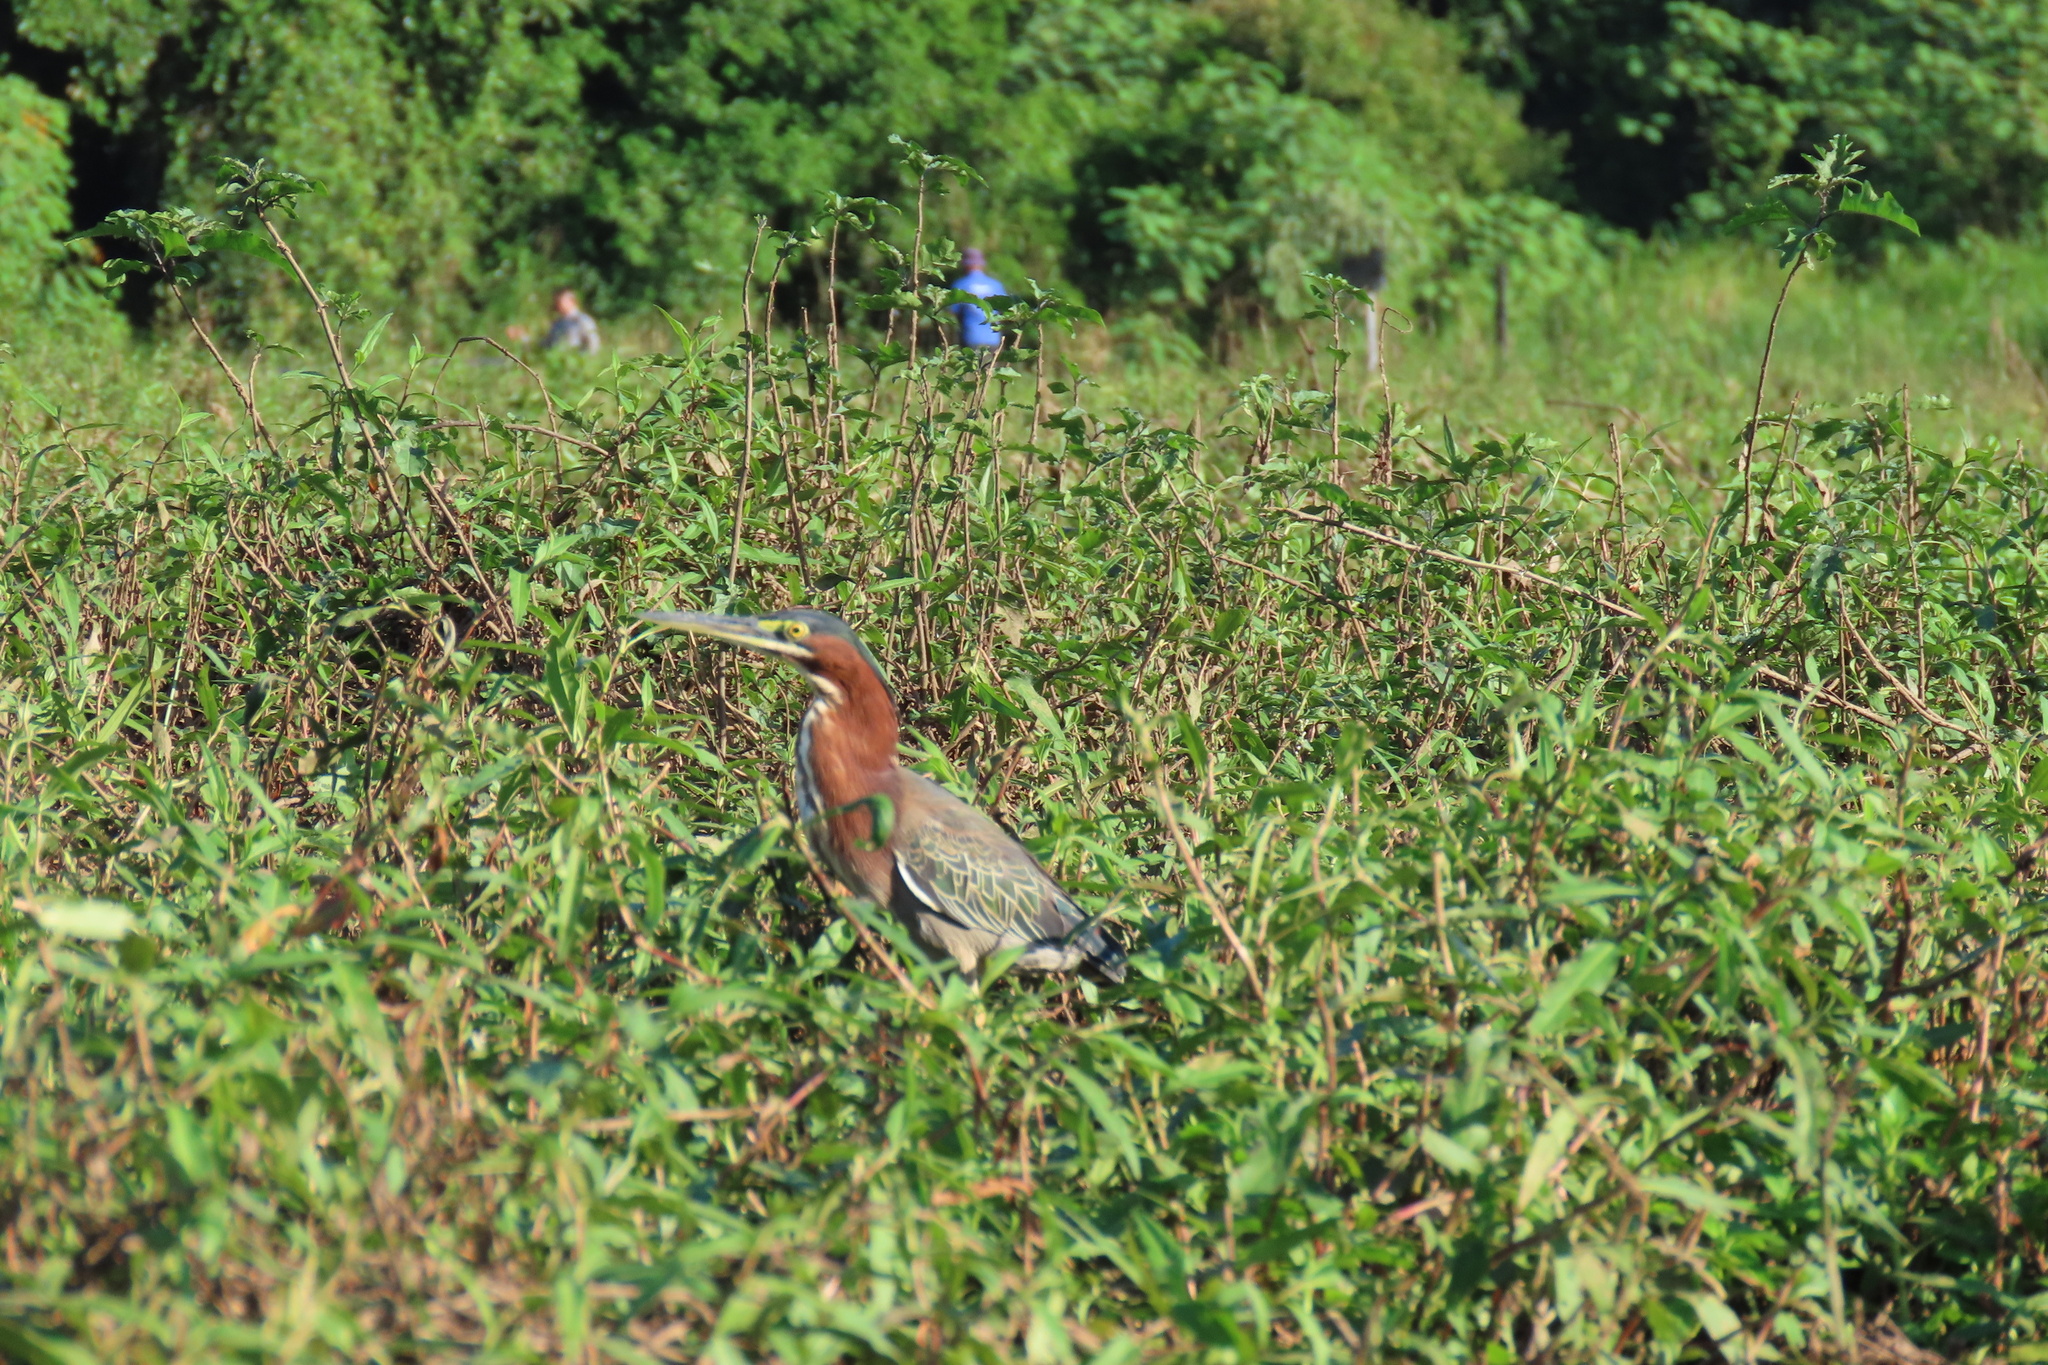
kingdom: Animalia
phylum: Chordata
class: Aves
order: Pelecaniformes
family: Ardeidae
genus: Butorides
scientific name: Butorides virescens
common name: Green heron
